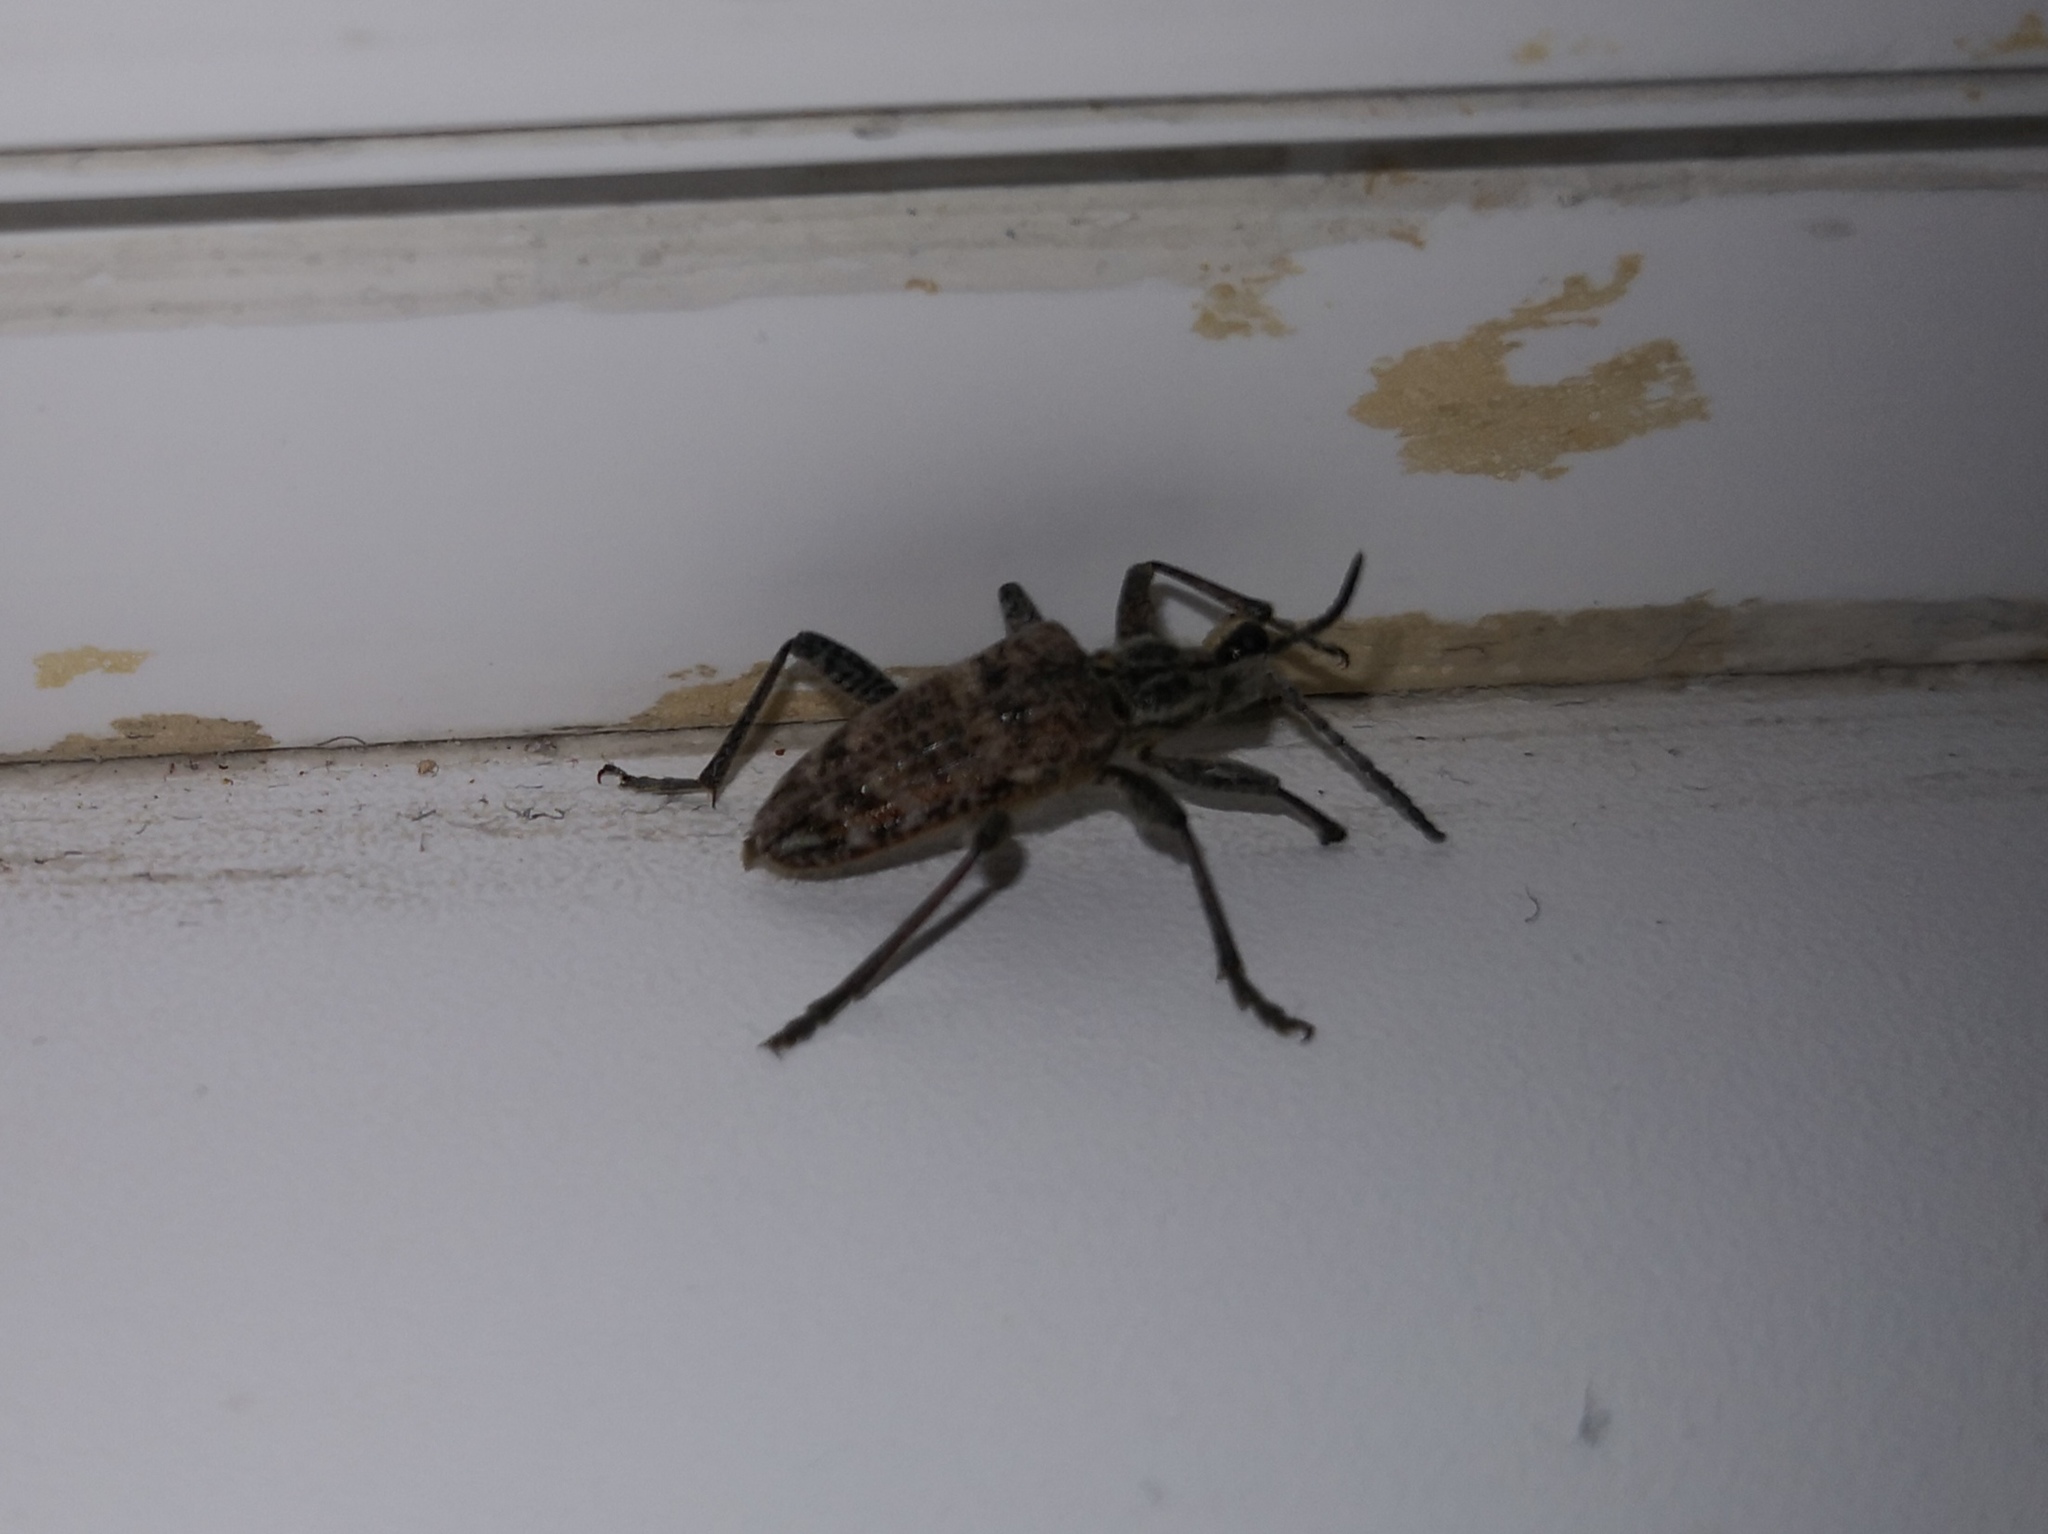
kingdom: Animalia
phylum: Arthropoda
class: Insecta
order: Coleoptera
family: Cerambycidae
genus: Rhagium
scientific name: Rhagium inquisitor
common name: Ribbed pine borer
